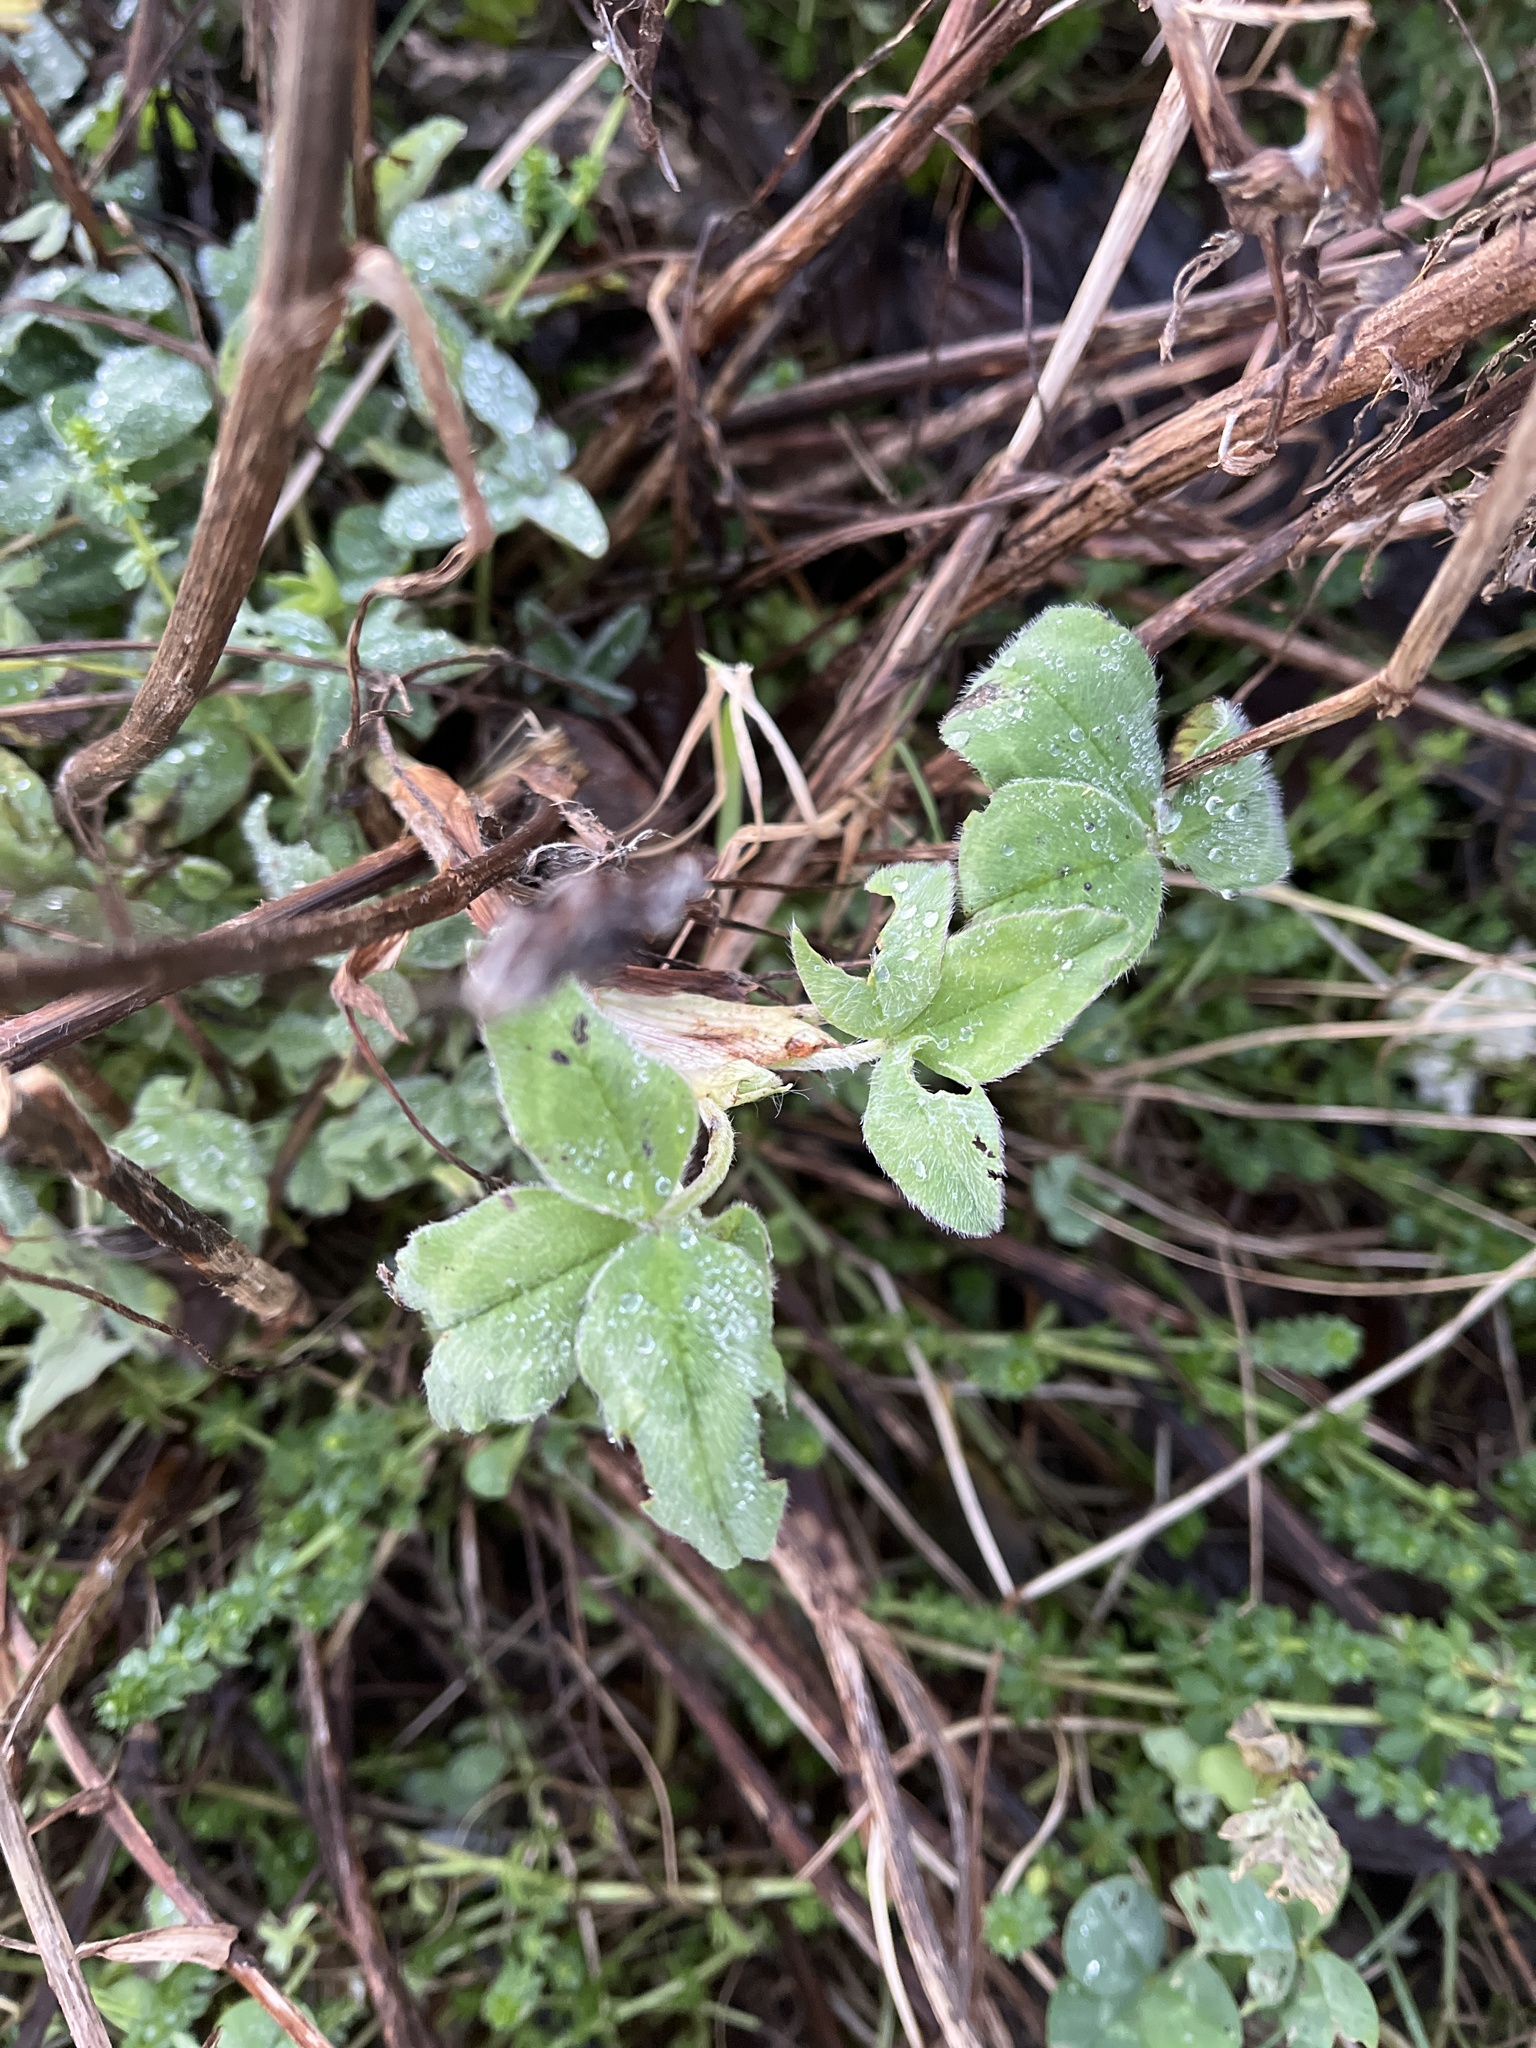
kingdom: Plantae
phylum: Tracheophyta
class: Magnoliopsida
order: Fabales
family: Fabaceae
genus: Trifolium
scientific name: Trifolium pratense
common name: Red clover
